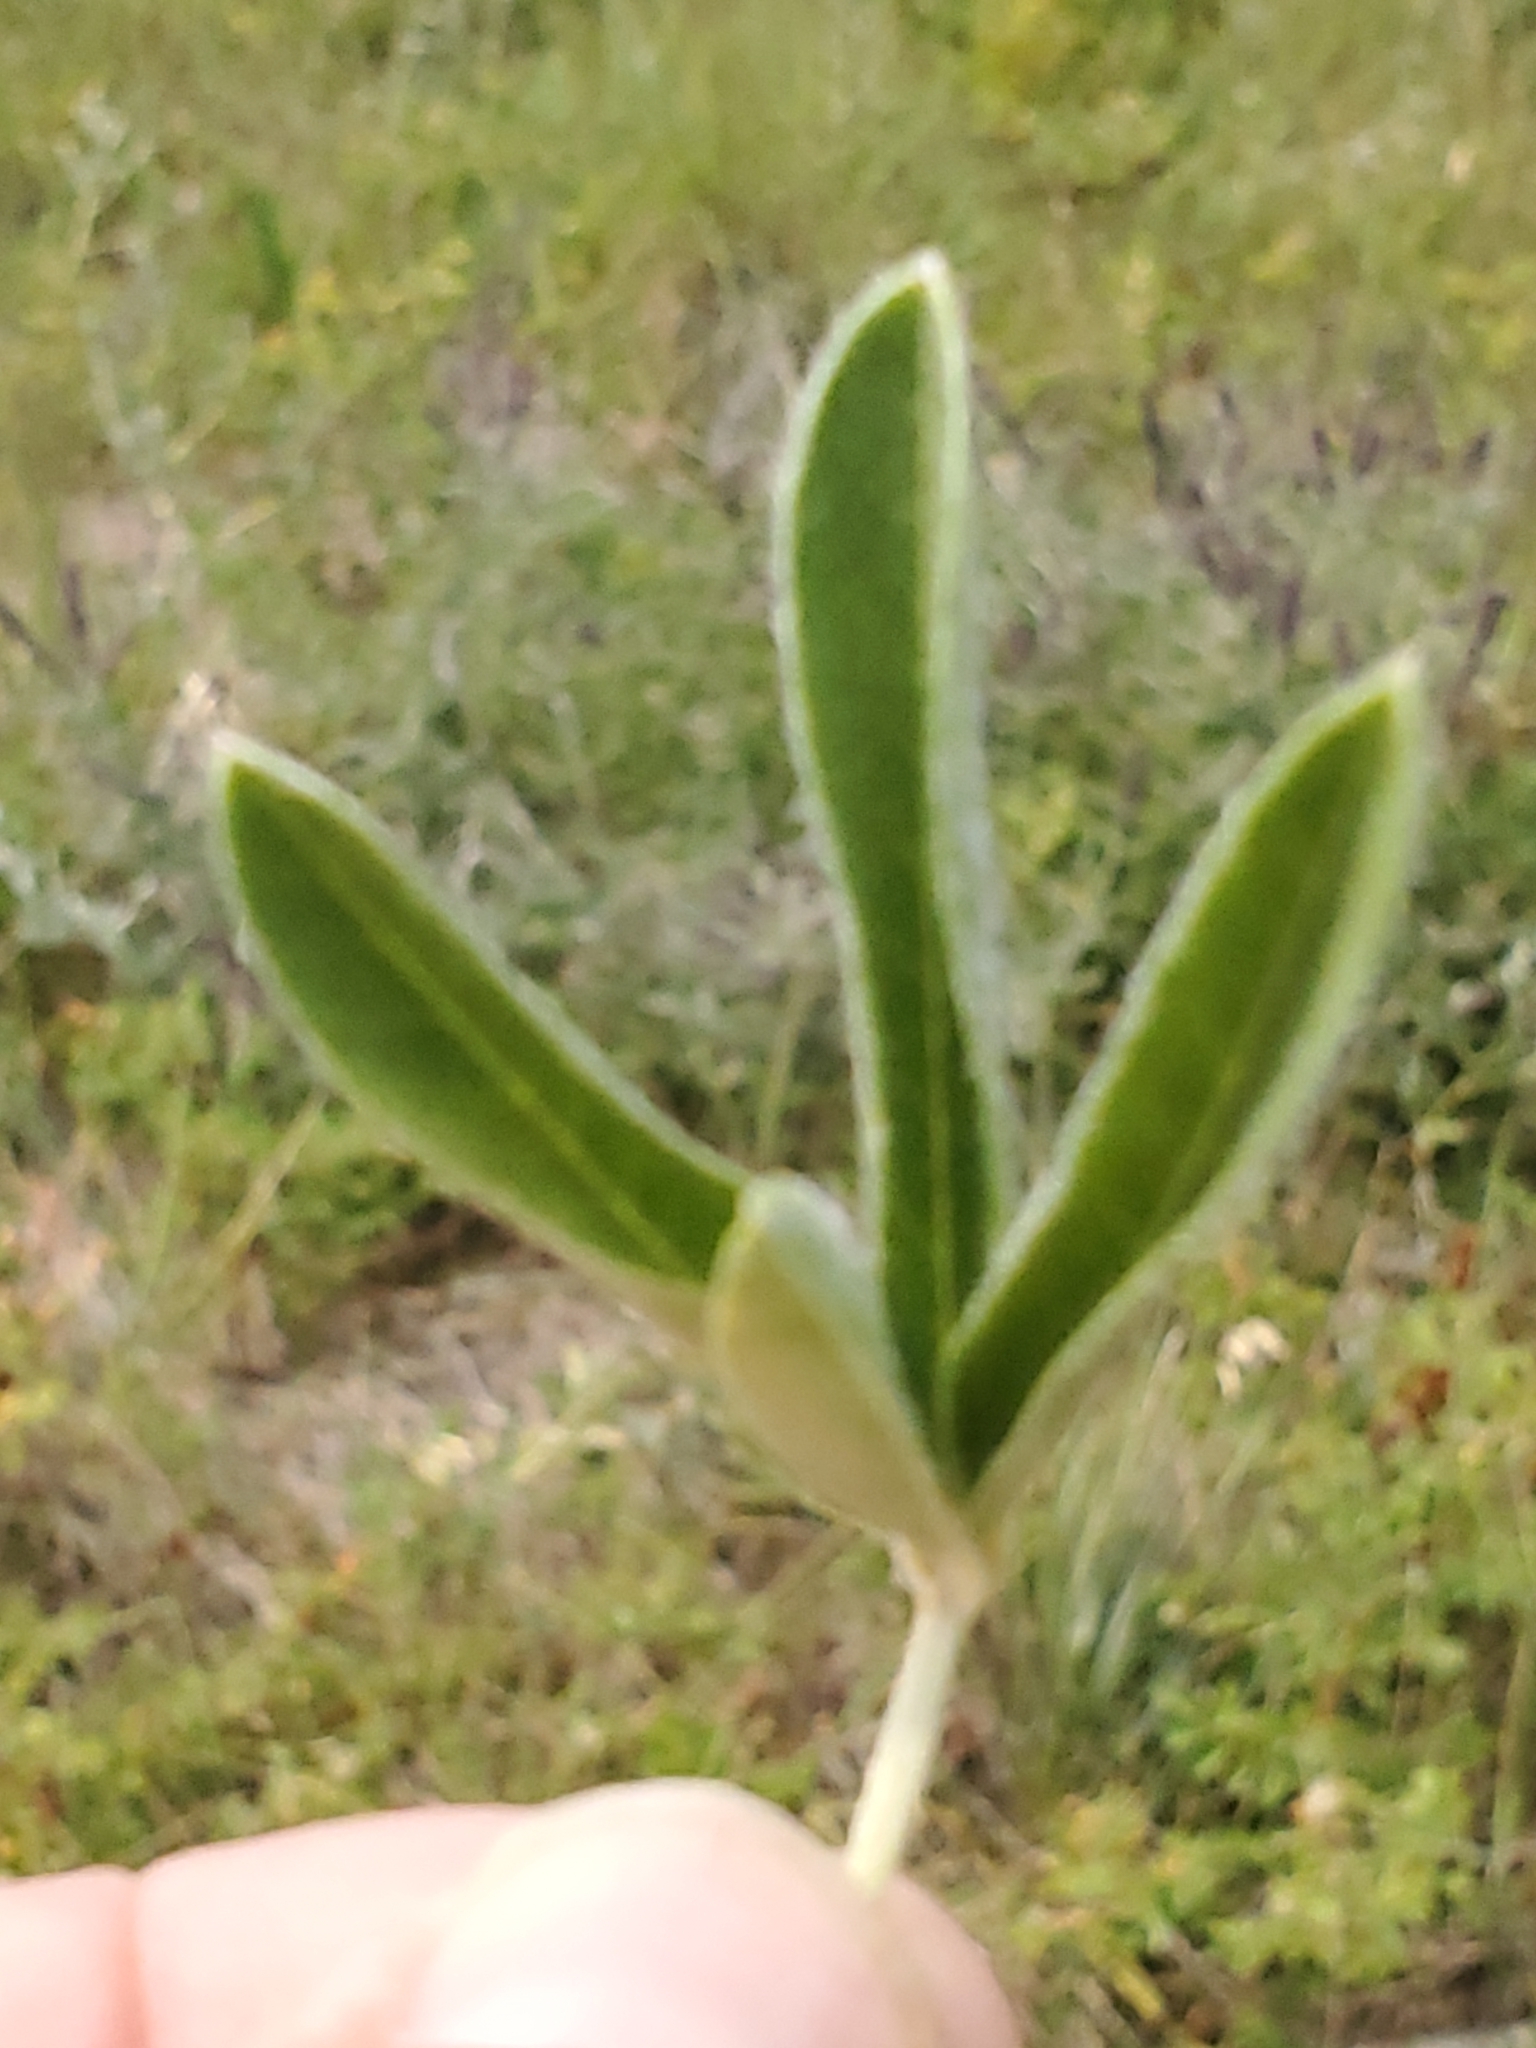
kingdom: Plantae
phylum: Tracheophyta
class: Magnoliopsida
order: Fabales
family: Fabaceae
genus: Pediomelum
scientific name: Pediomelum argophyllum
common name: Silver-leaved indian breadroot
